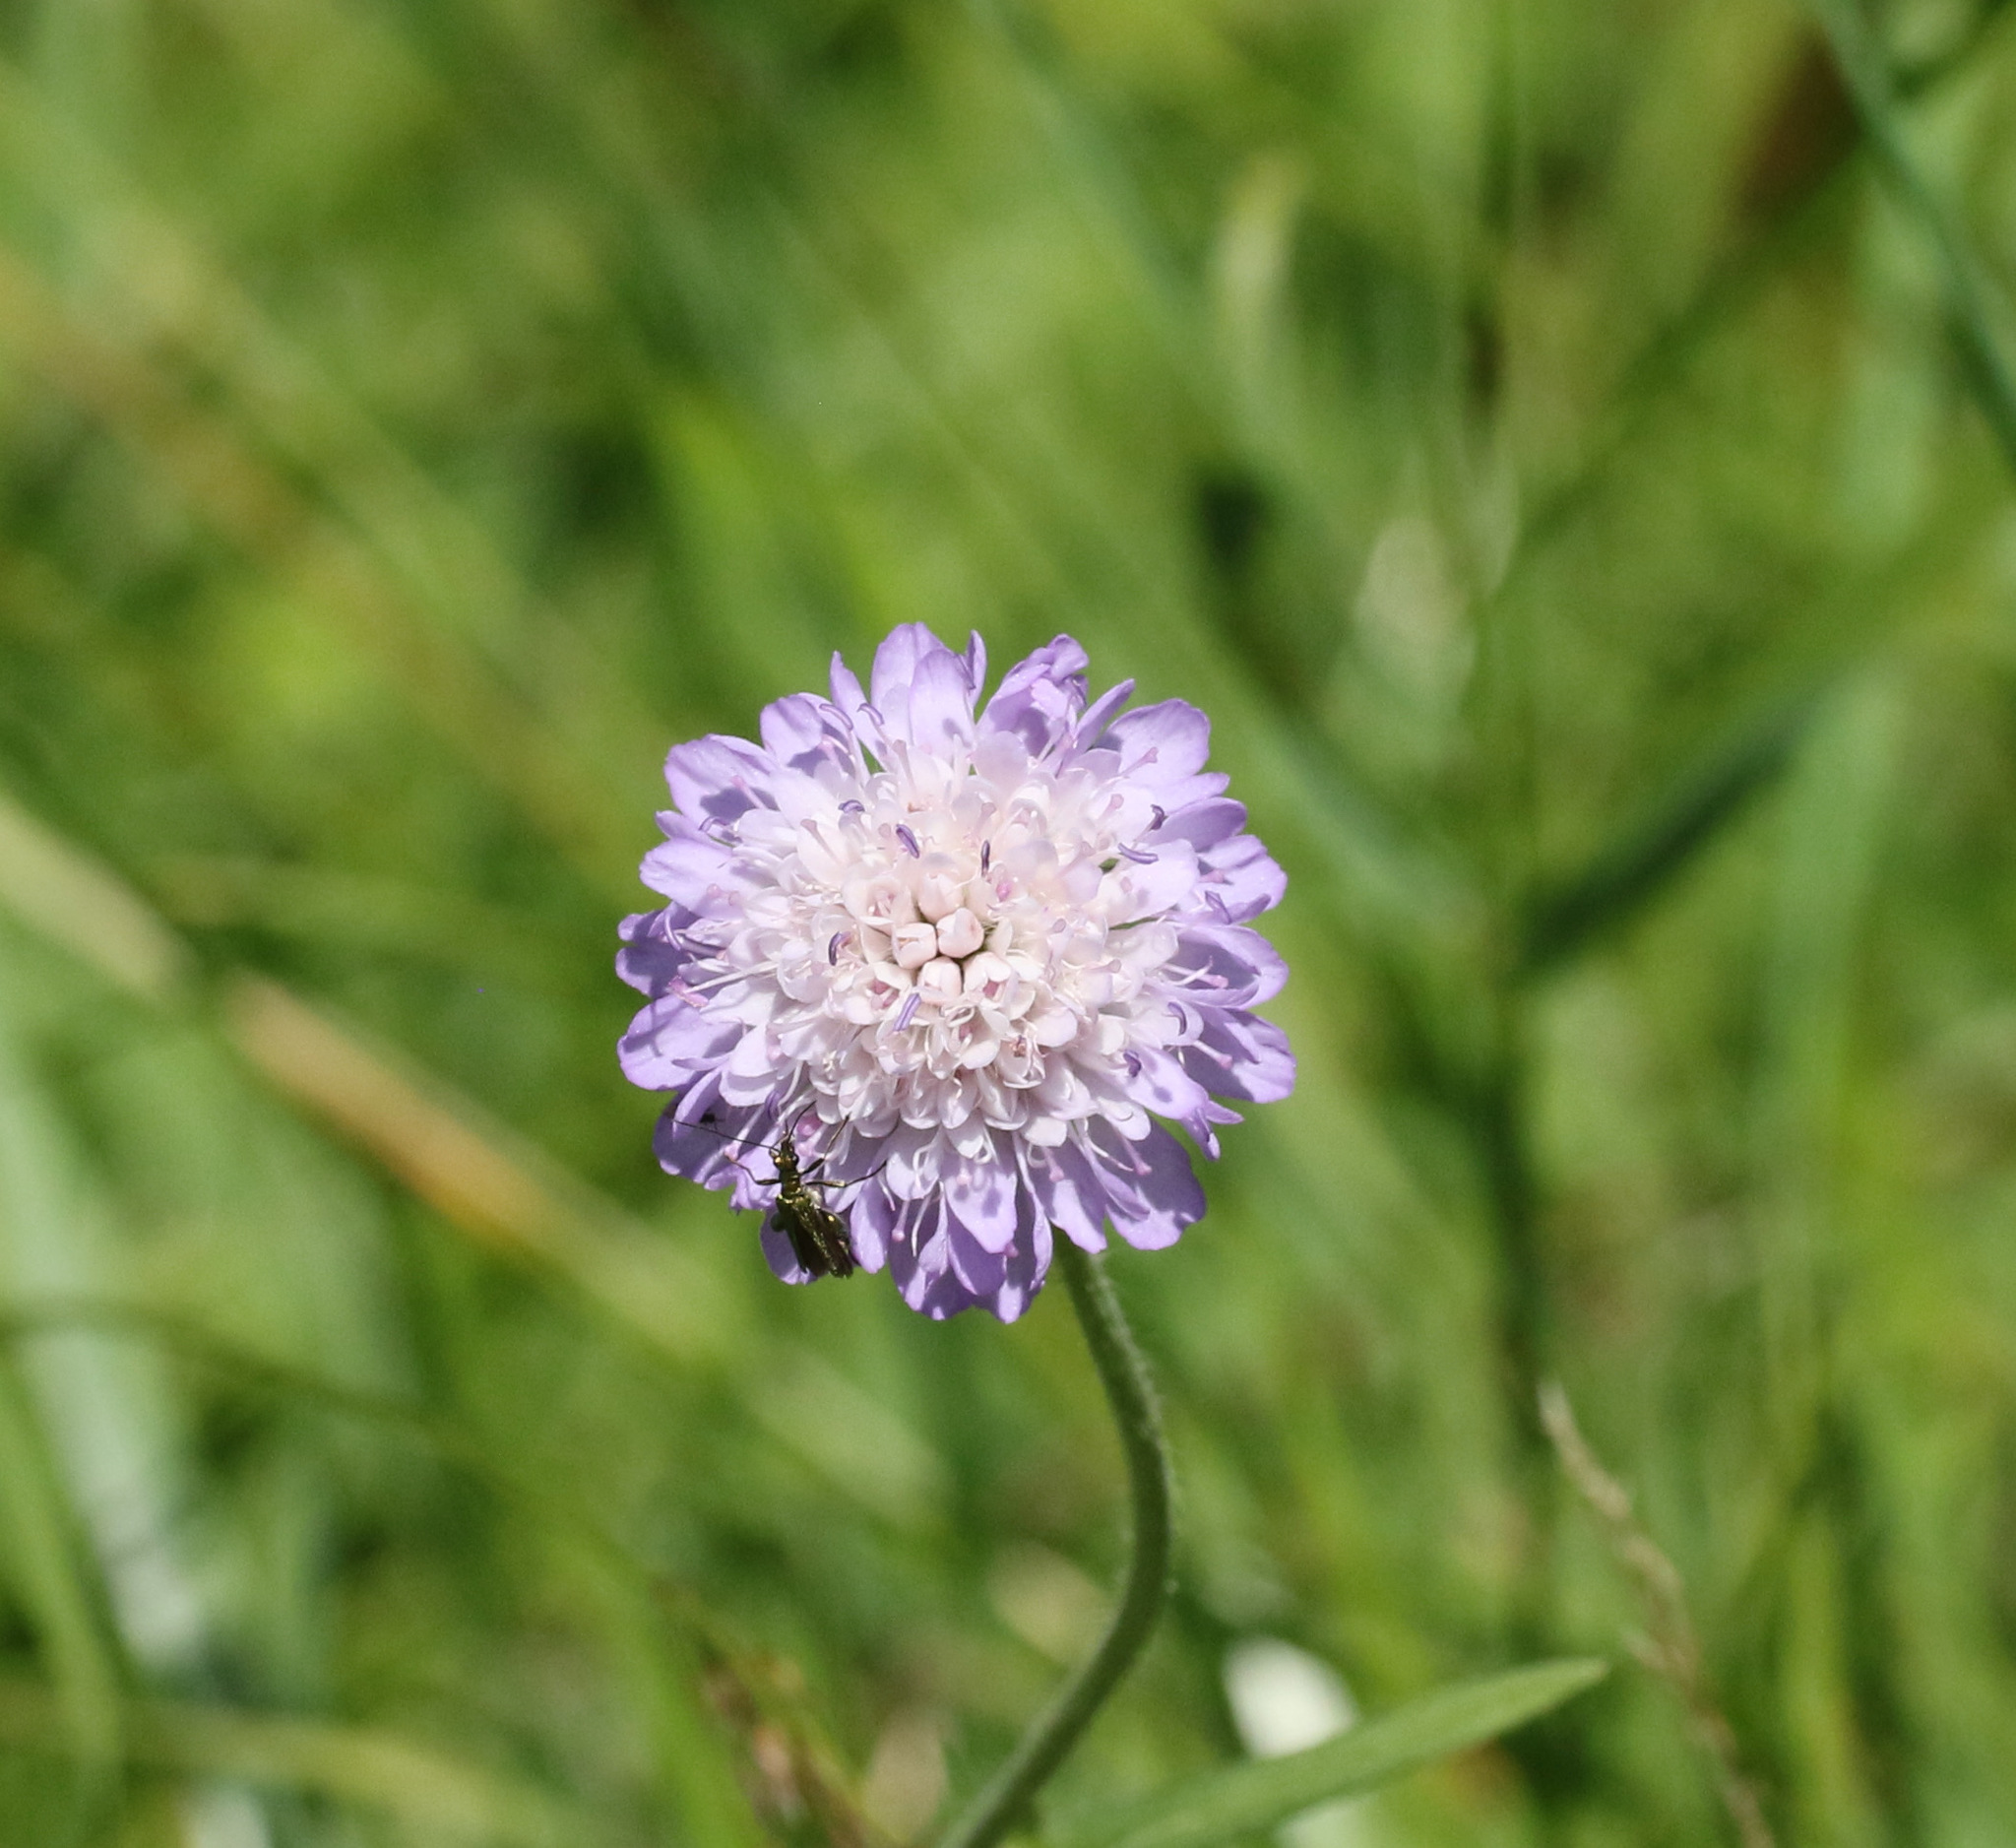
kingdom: Plantae
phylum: Tracheophyta
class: Magnoliopsida
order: Dipsacales
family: Caprifoliaceae
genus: Knautia
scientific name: Knautia arvensis
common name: Field scabiosa
